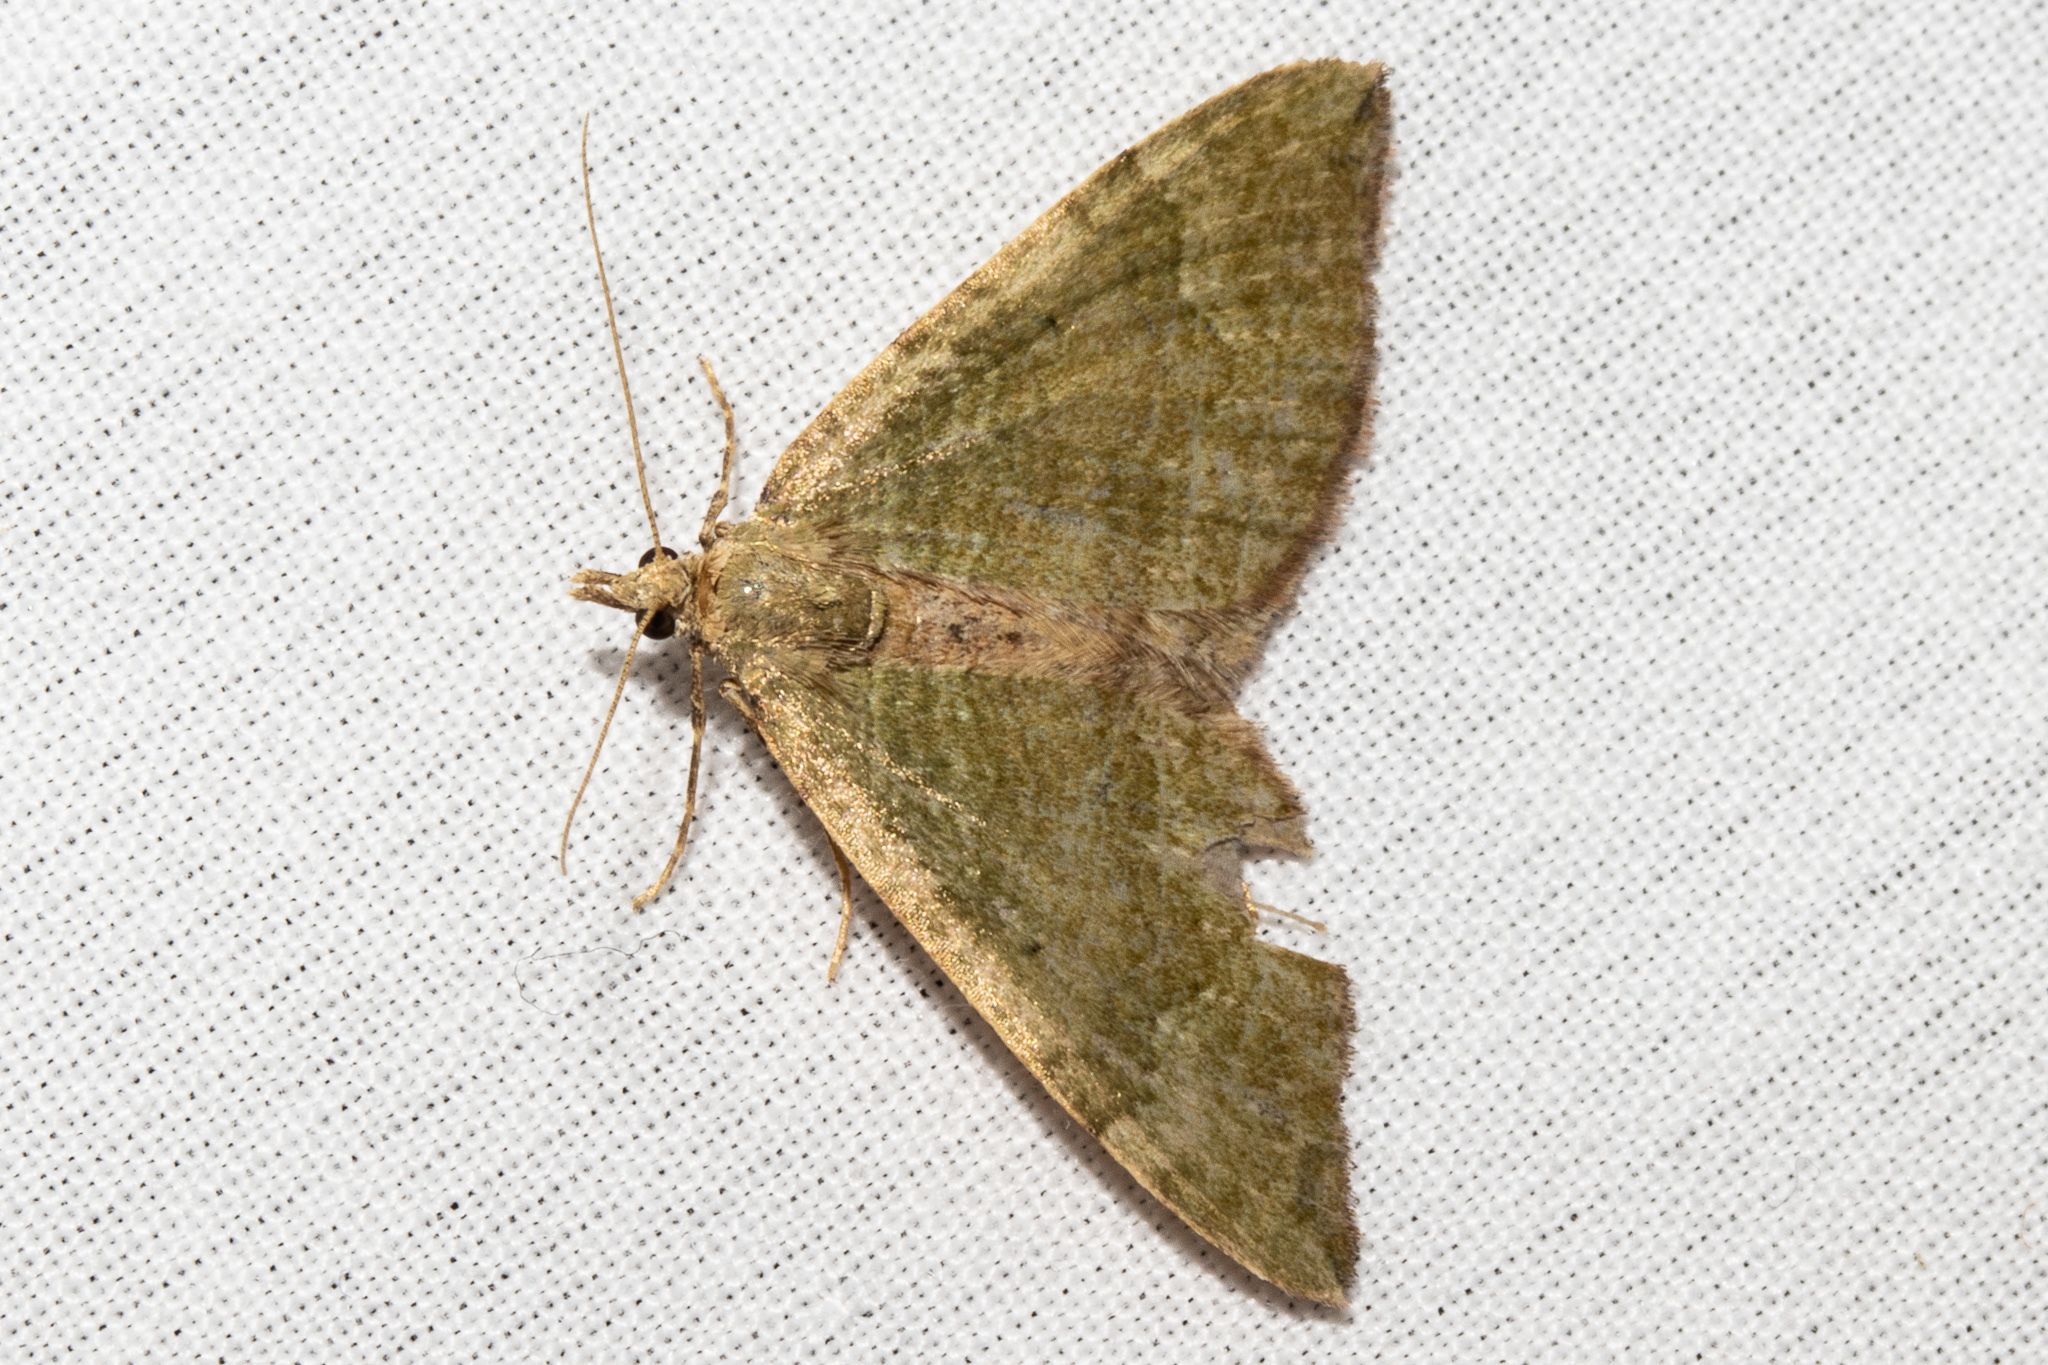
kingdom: Animalia
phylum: Arthropoda
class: Insecta
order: Lepidoptera
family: Geometridae
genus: Epyaxa
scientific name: Epyaxa rosearia
